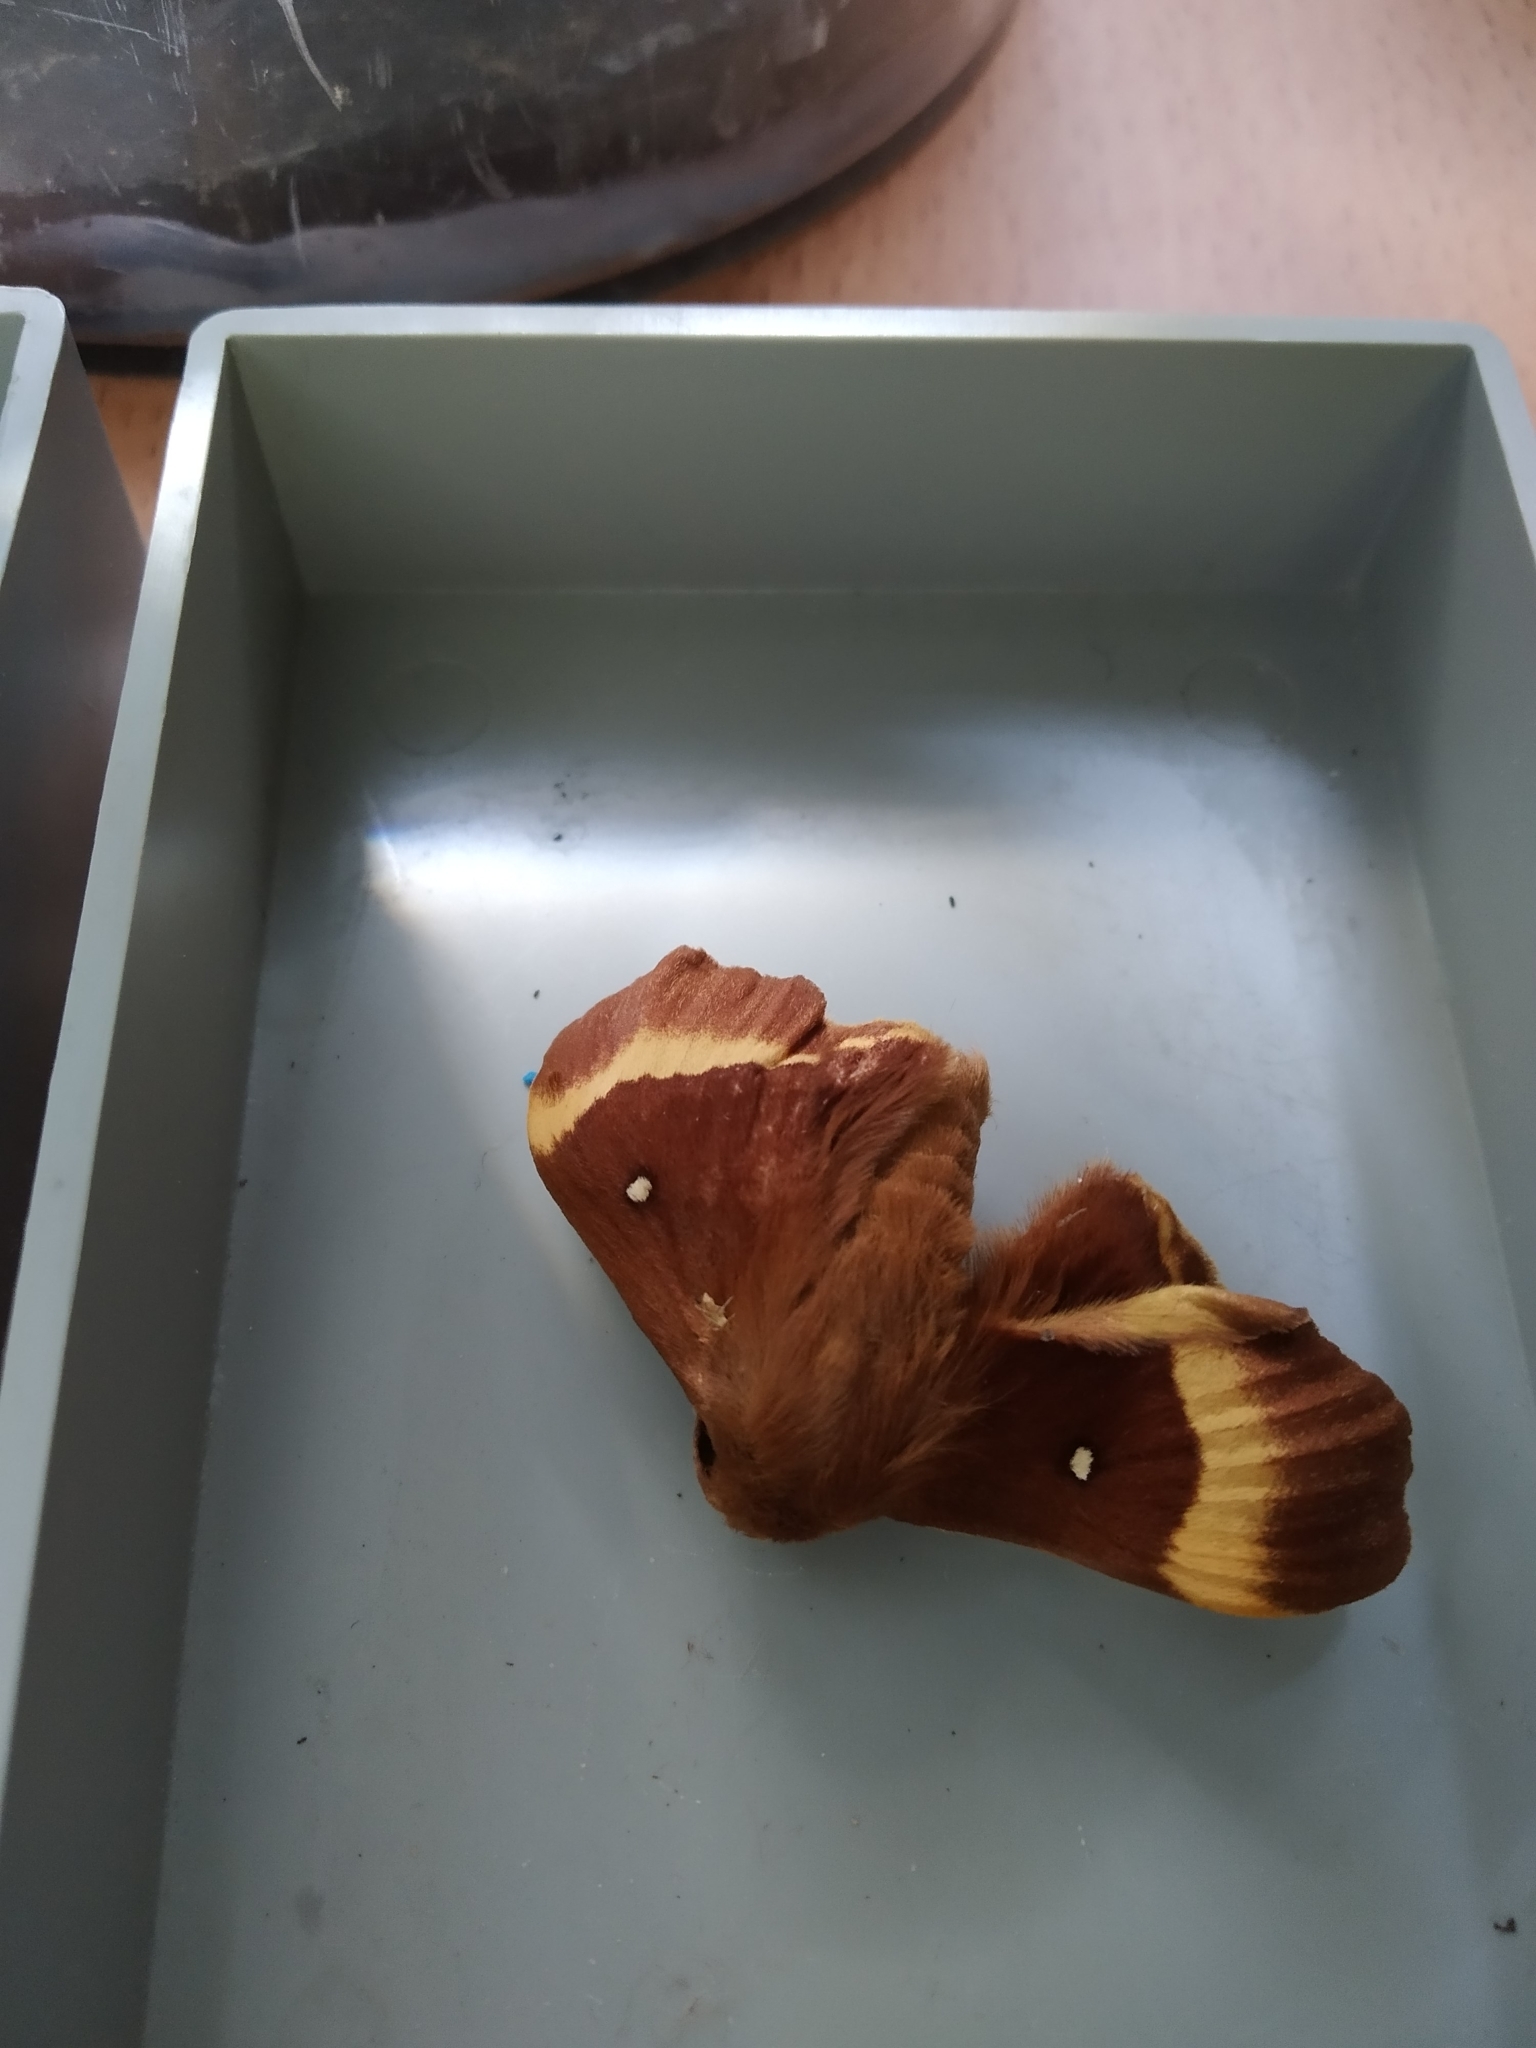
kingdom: Animalia
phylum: Arthropoda
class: Insecta
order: Lepidoptera
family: Lasiocampidae
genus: Lasiocampa
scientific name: Lasiocampa quercus
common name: Oak eggar
